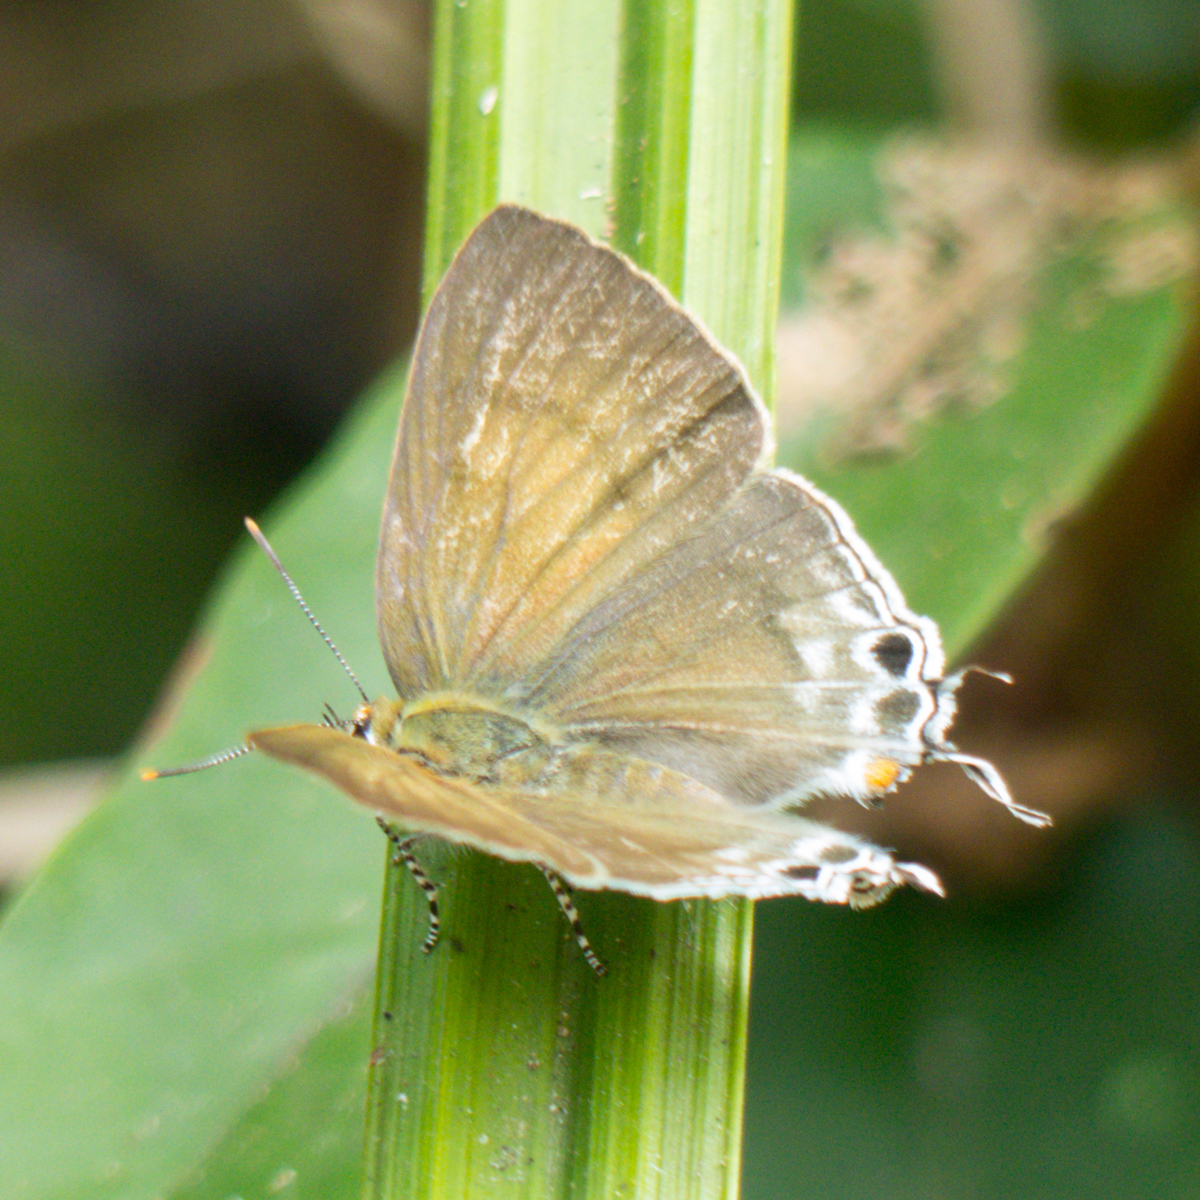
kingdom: Animalia
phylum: Arthropoda
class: Insecta
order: Lepidoptera
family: Lycaenidae
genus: Hypolycaena
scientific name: Hypolycaena erylus
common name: Common tit
